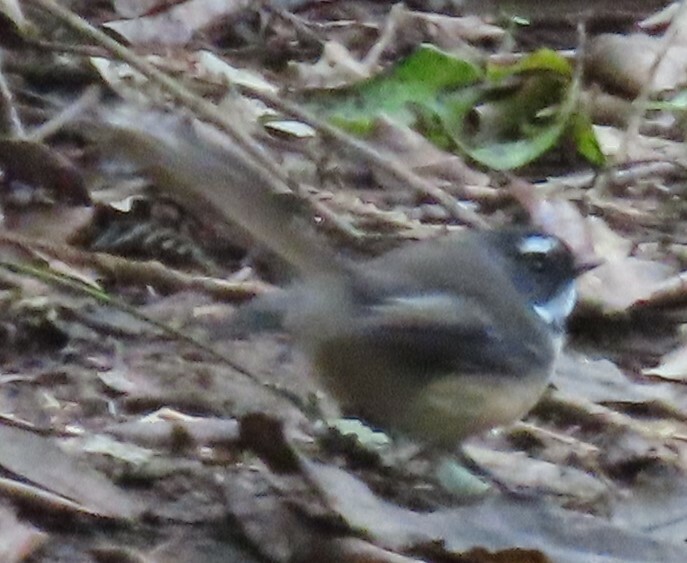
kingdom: Animalia
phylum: Chordata
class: Aves
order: Passeriformes
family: Rhipiduridae
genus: Rhipidura
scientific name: Rhipidura fuliginosa
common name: New zealand fantail
